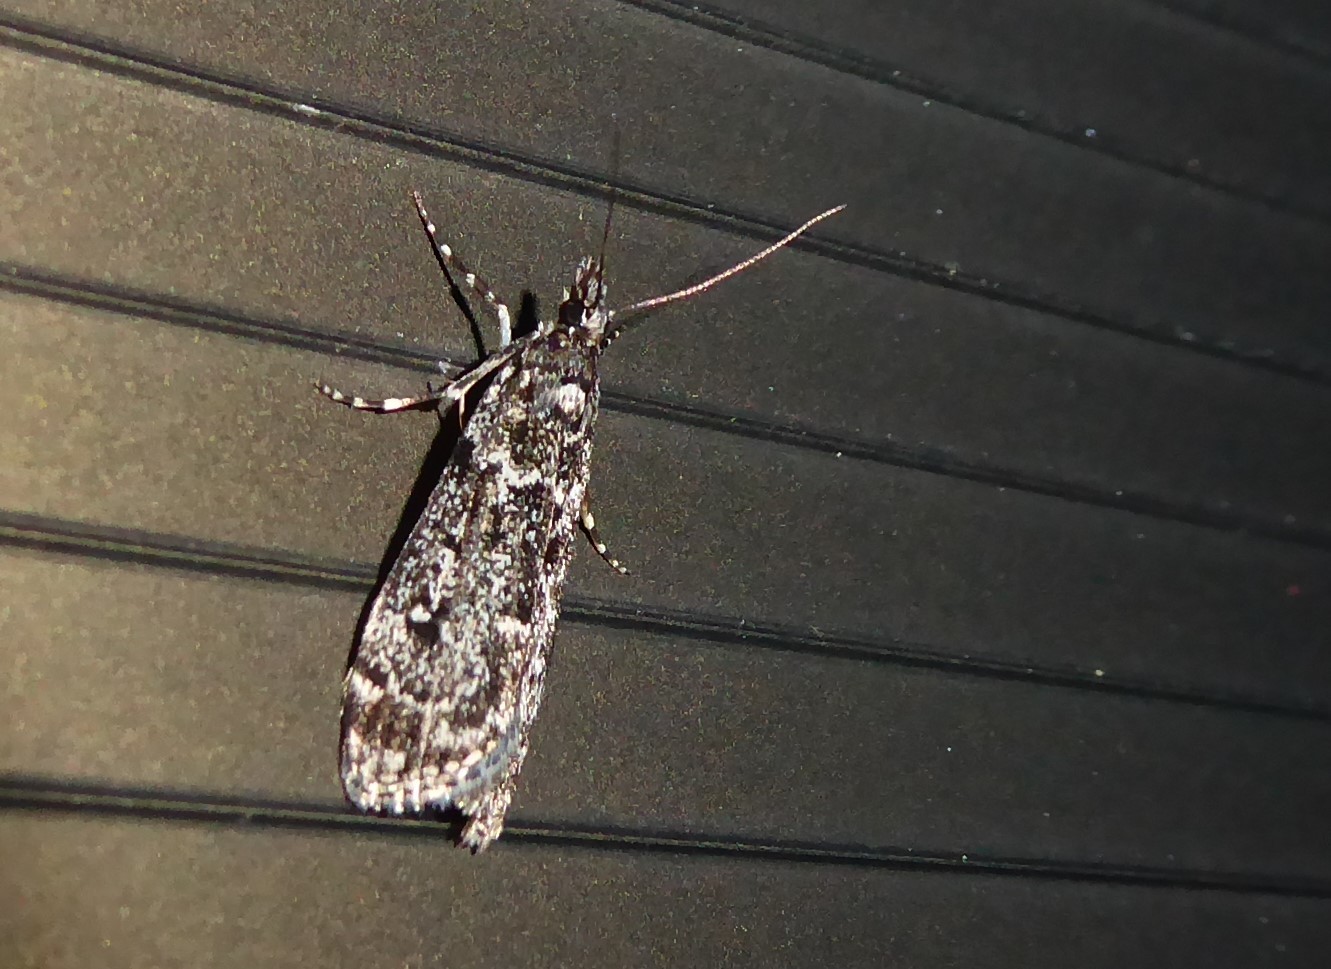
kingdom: Animalia
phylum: Arthropoda
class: Insecta
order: Lepidoptera
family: Crambidae
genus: Eudonia
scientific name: Eudonia philerga
